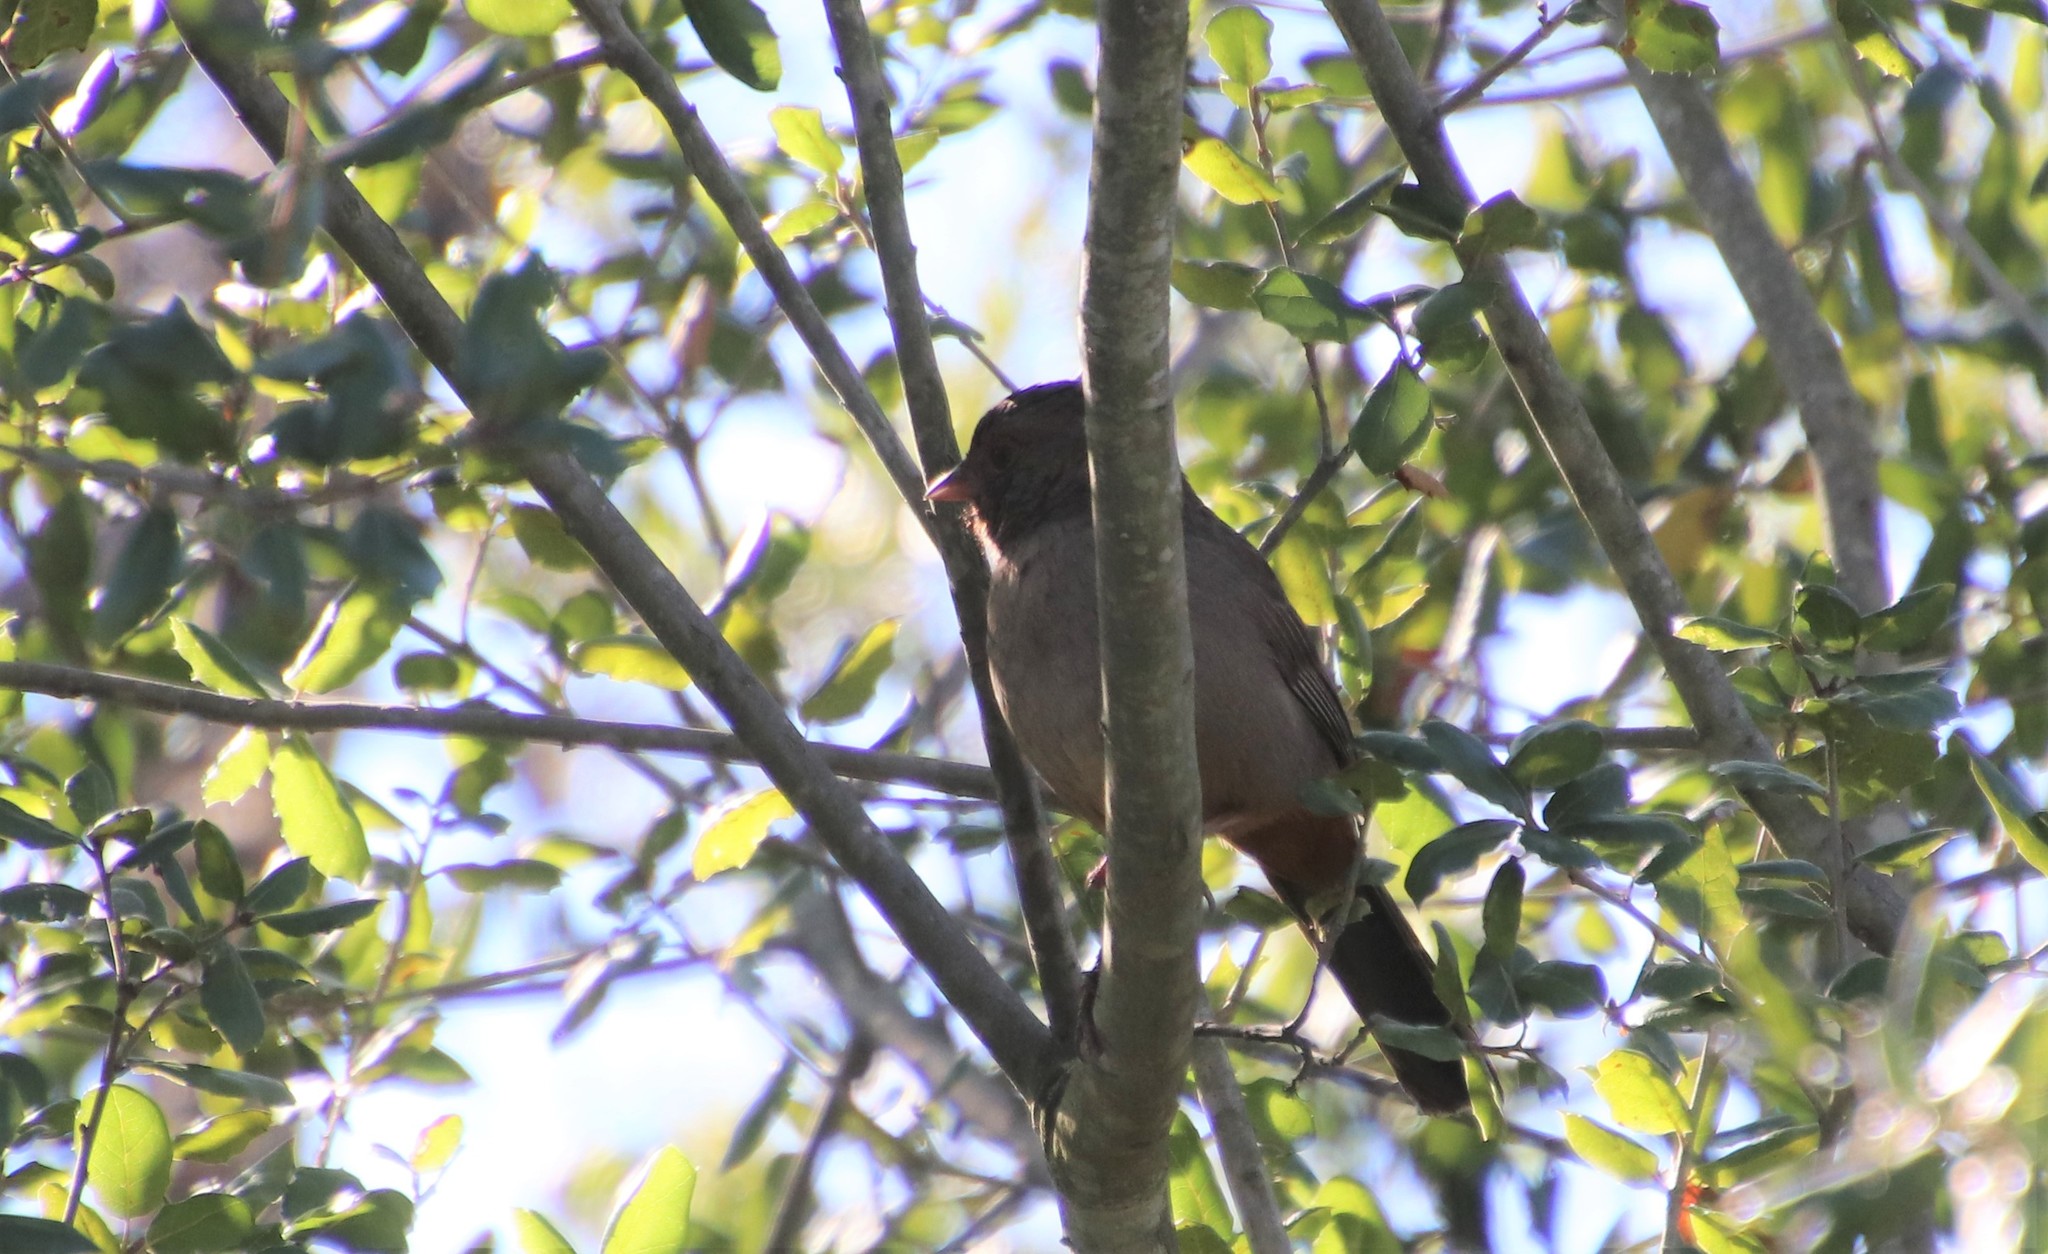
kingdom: Animalia
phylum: Chordata
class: Aves
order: Passeriformes
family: Passerellidae
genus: Melozone
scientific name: Melozone crissalis
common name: California towhee
